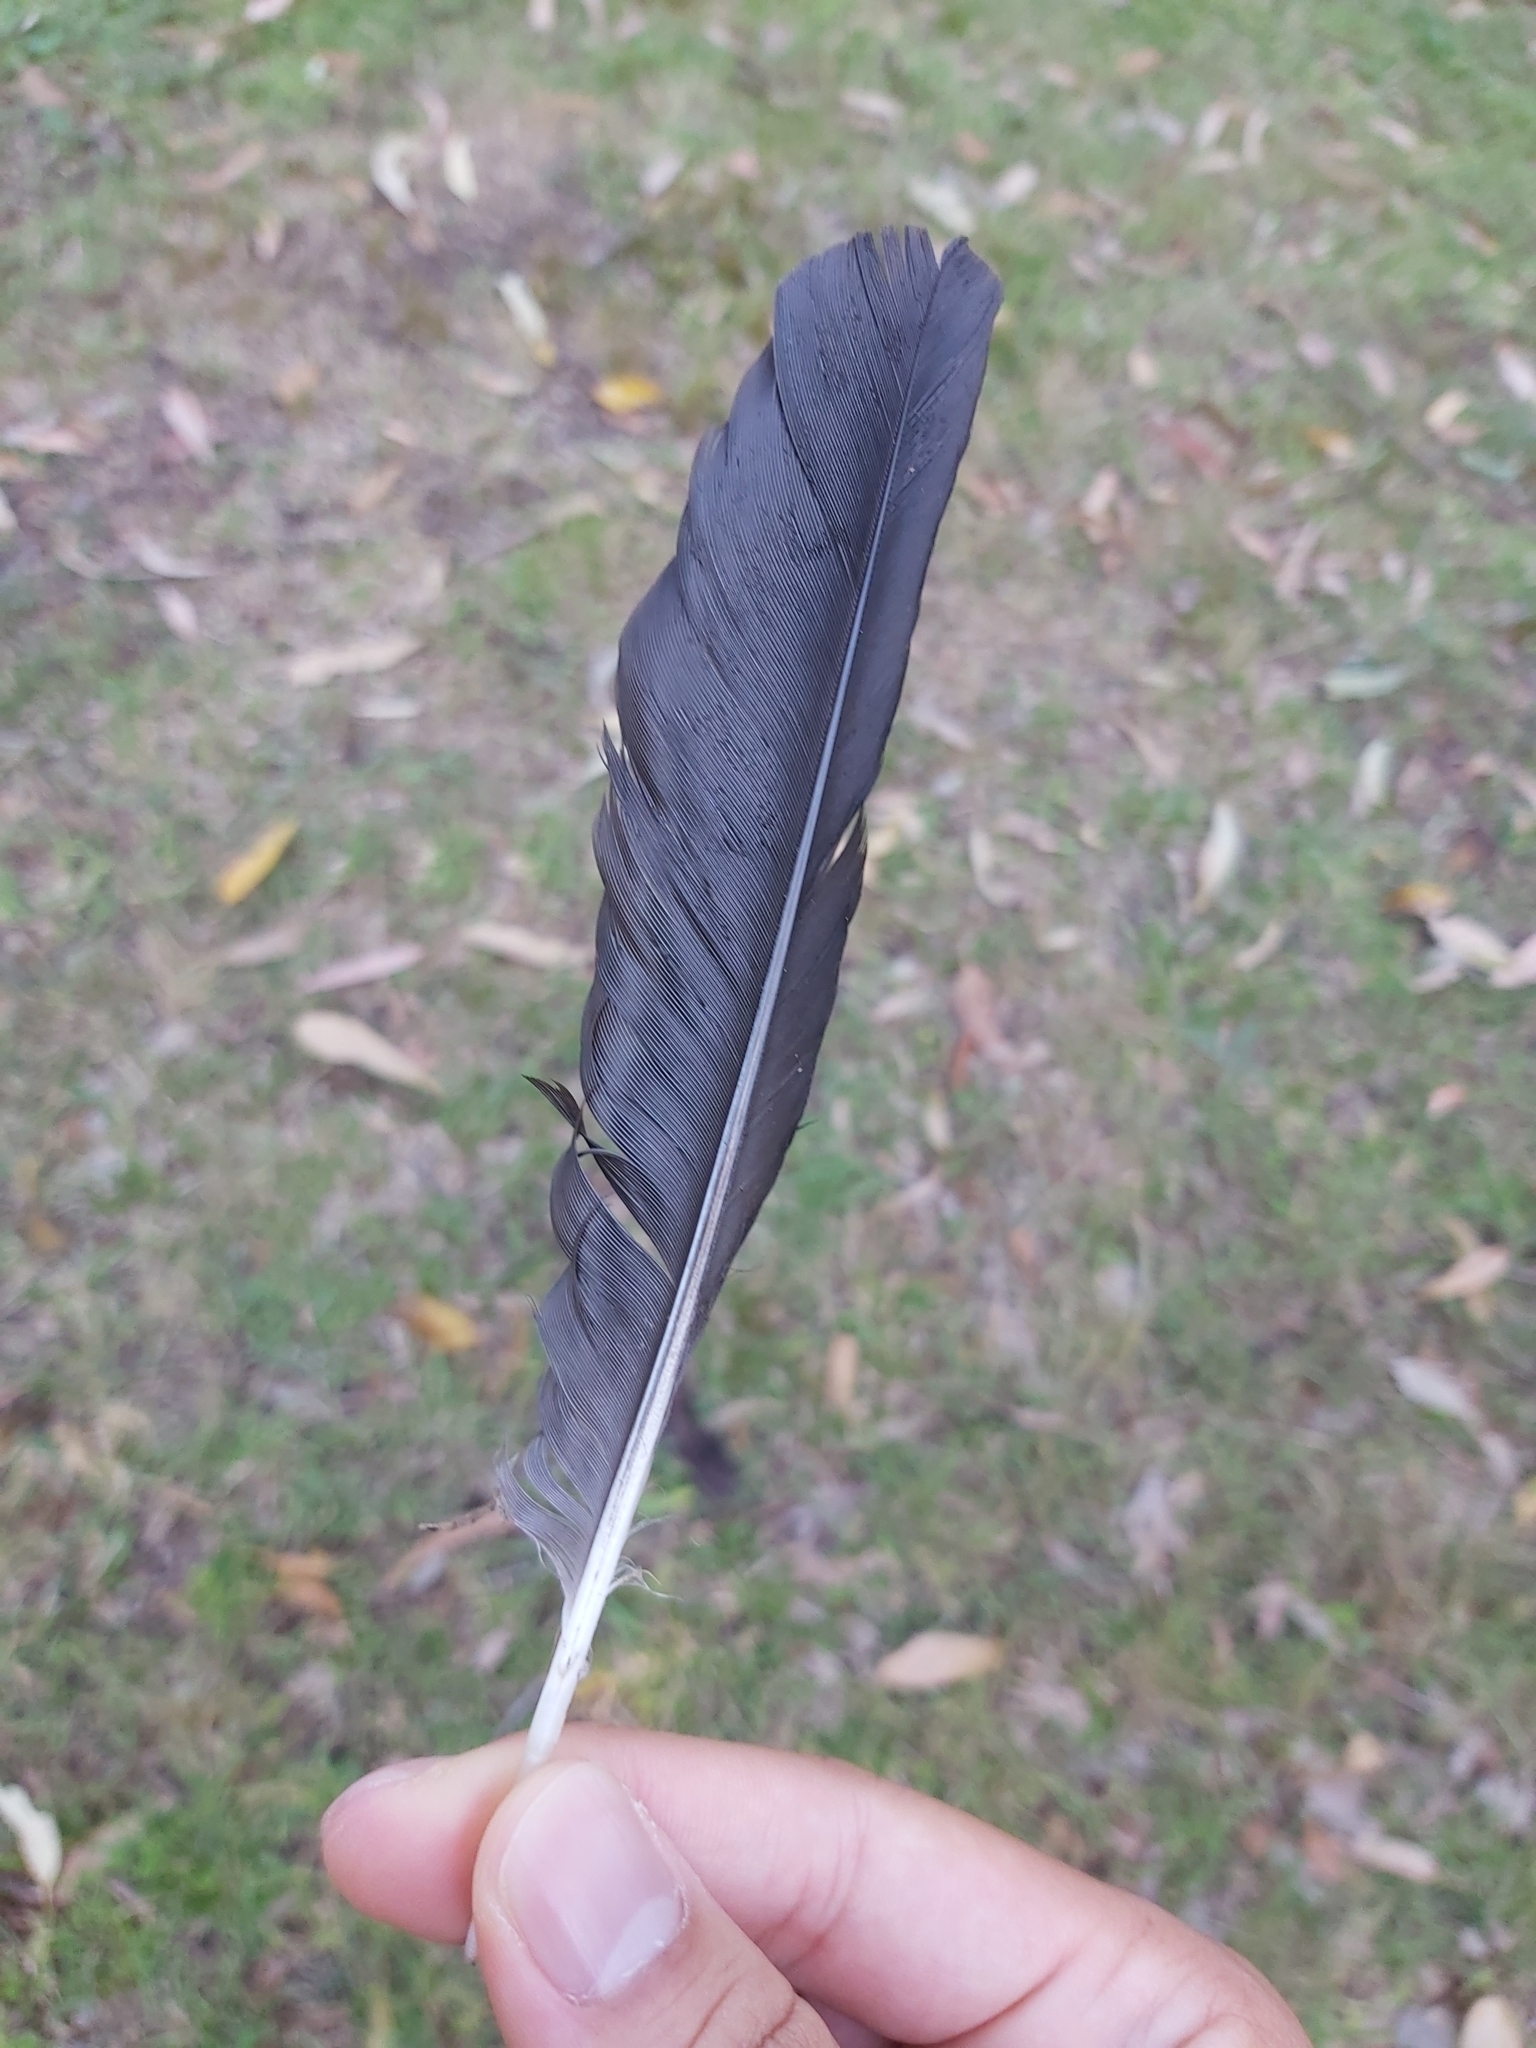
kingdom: Animalia
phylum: Chordata
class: Aves
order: Passeriformes
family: Cracticidae
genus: Gymnorhina
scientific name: Gymnorhina tibicen
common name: Australian magpie
